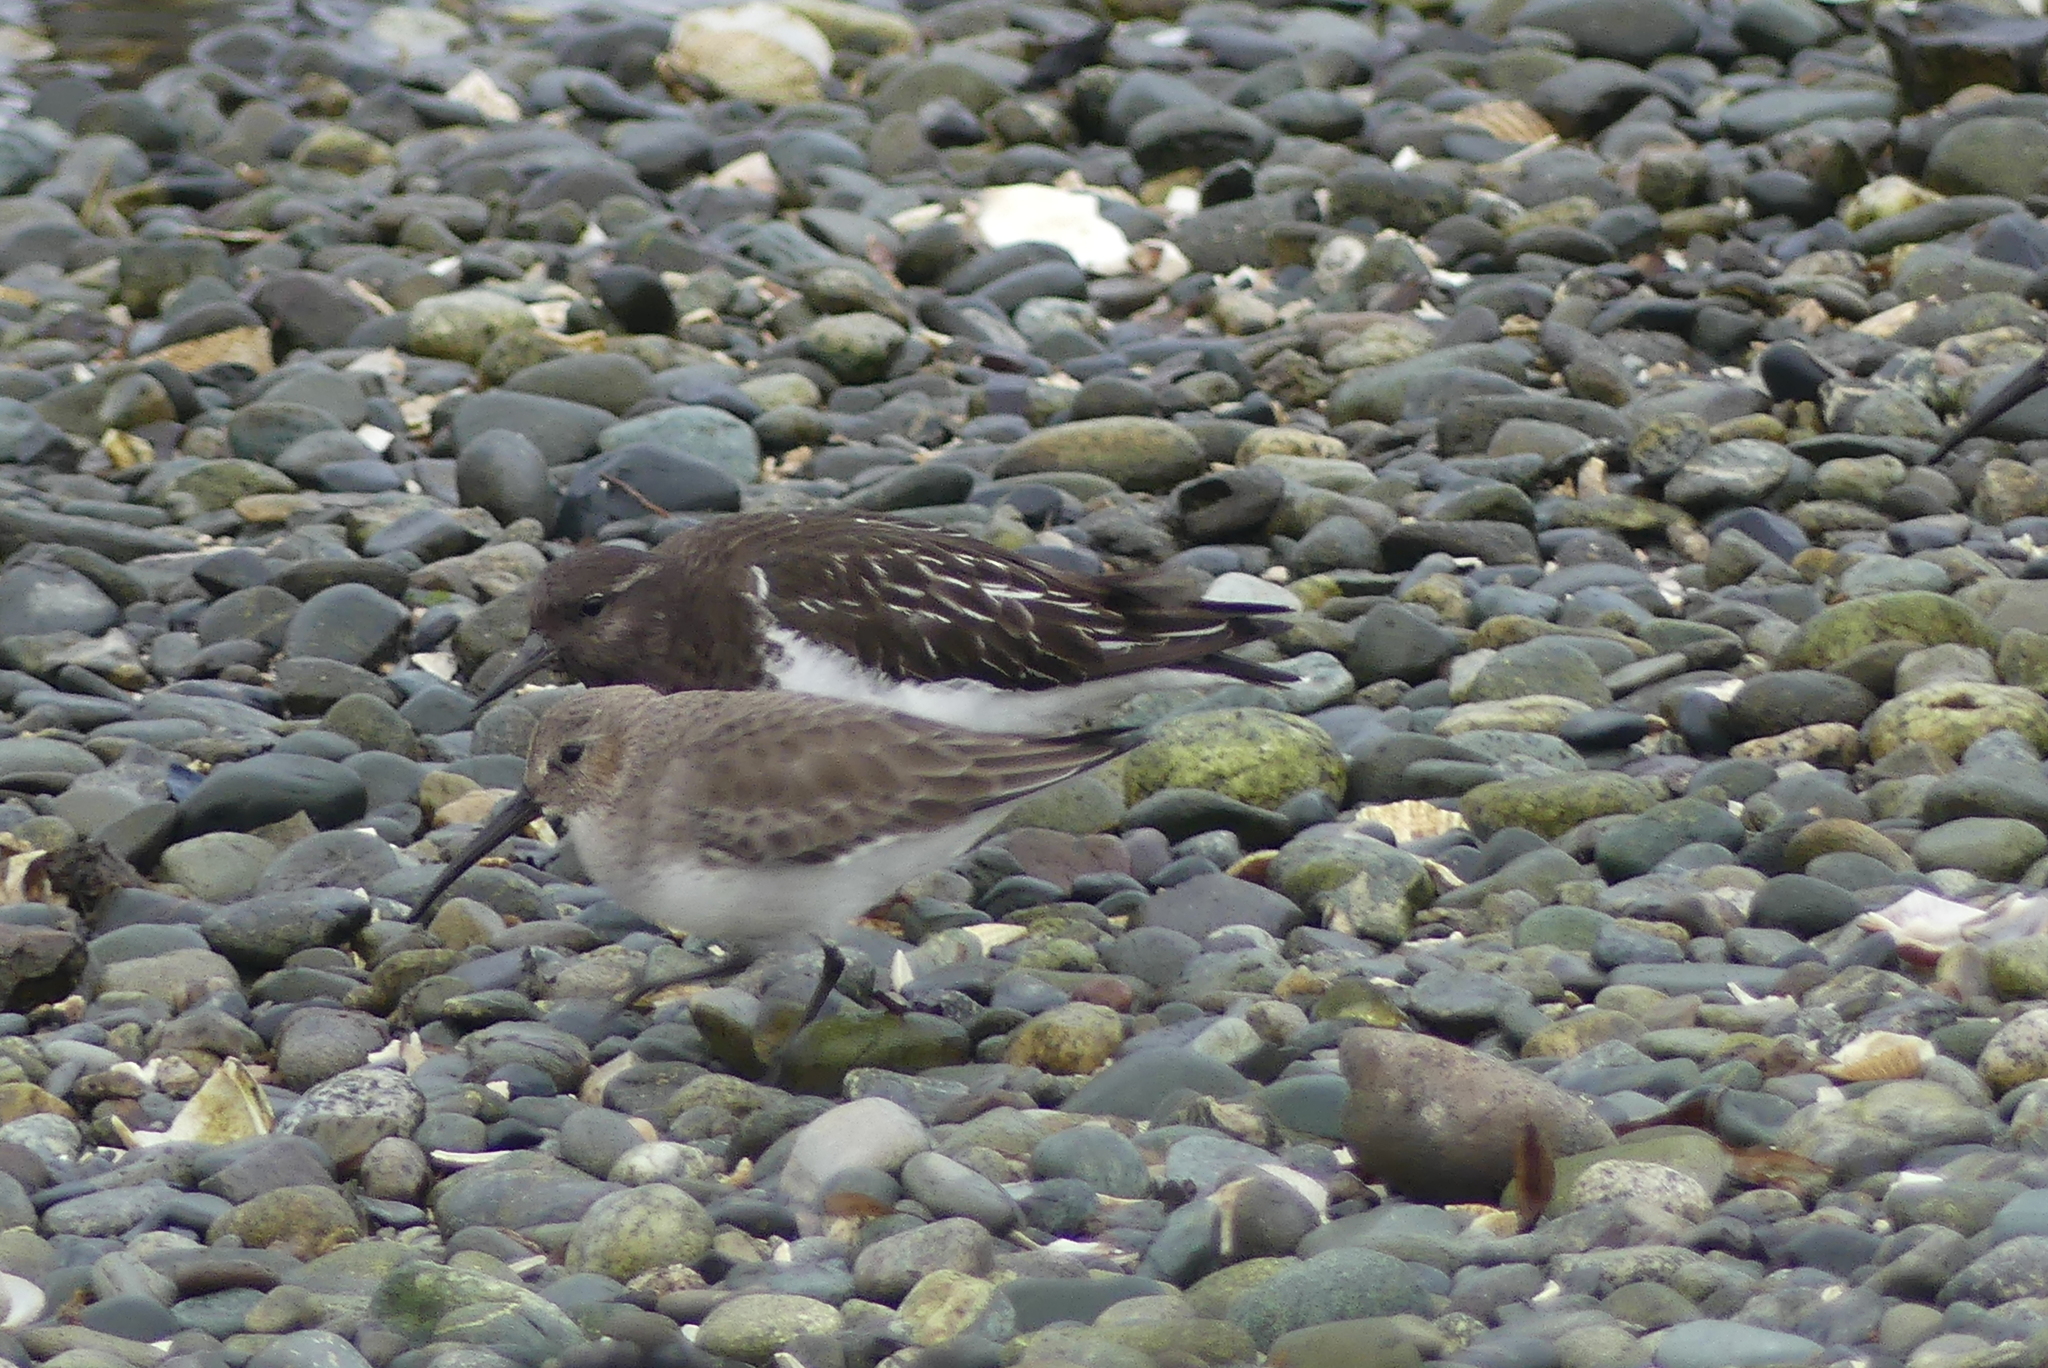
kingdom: Animalia
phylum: Chordata
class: Aves
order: Charadriiformes
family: Scolopacidae
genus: Arenaria
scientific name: Arenaria melanocephala
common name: Black turnstone
